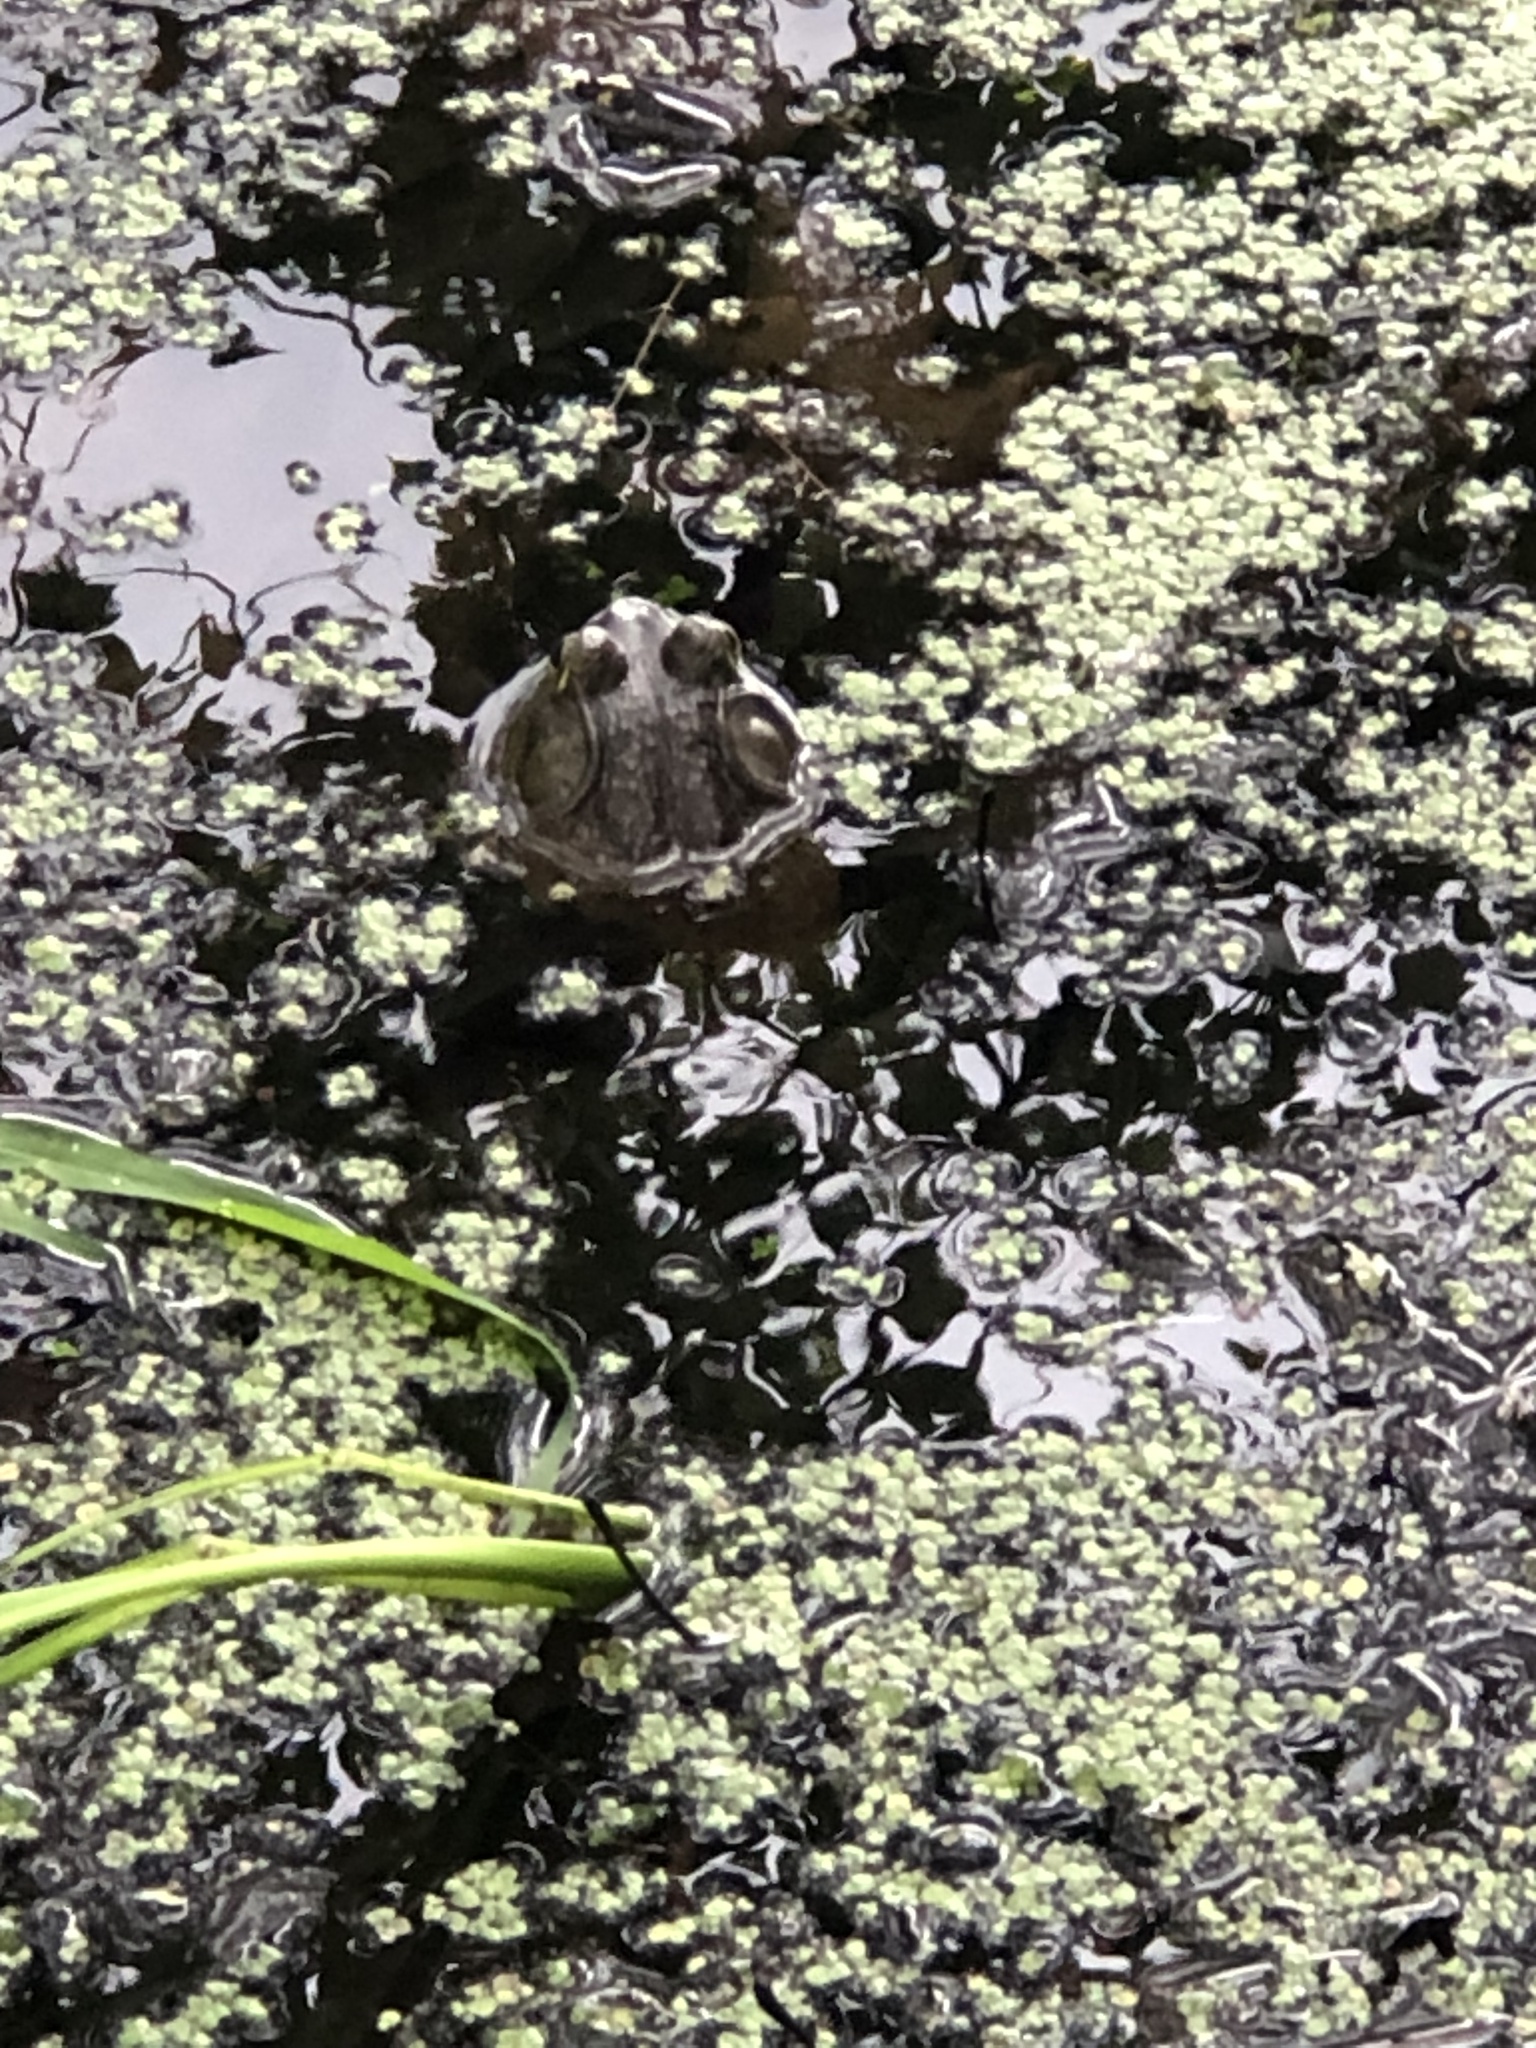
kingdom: Animalia
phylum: Chordata
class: Amphibia
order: Anura
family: Ranidae
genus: Lithobates
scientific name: Lithobates catesbeianus
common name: American bullfrog
